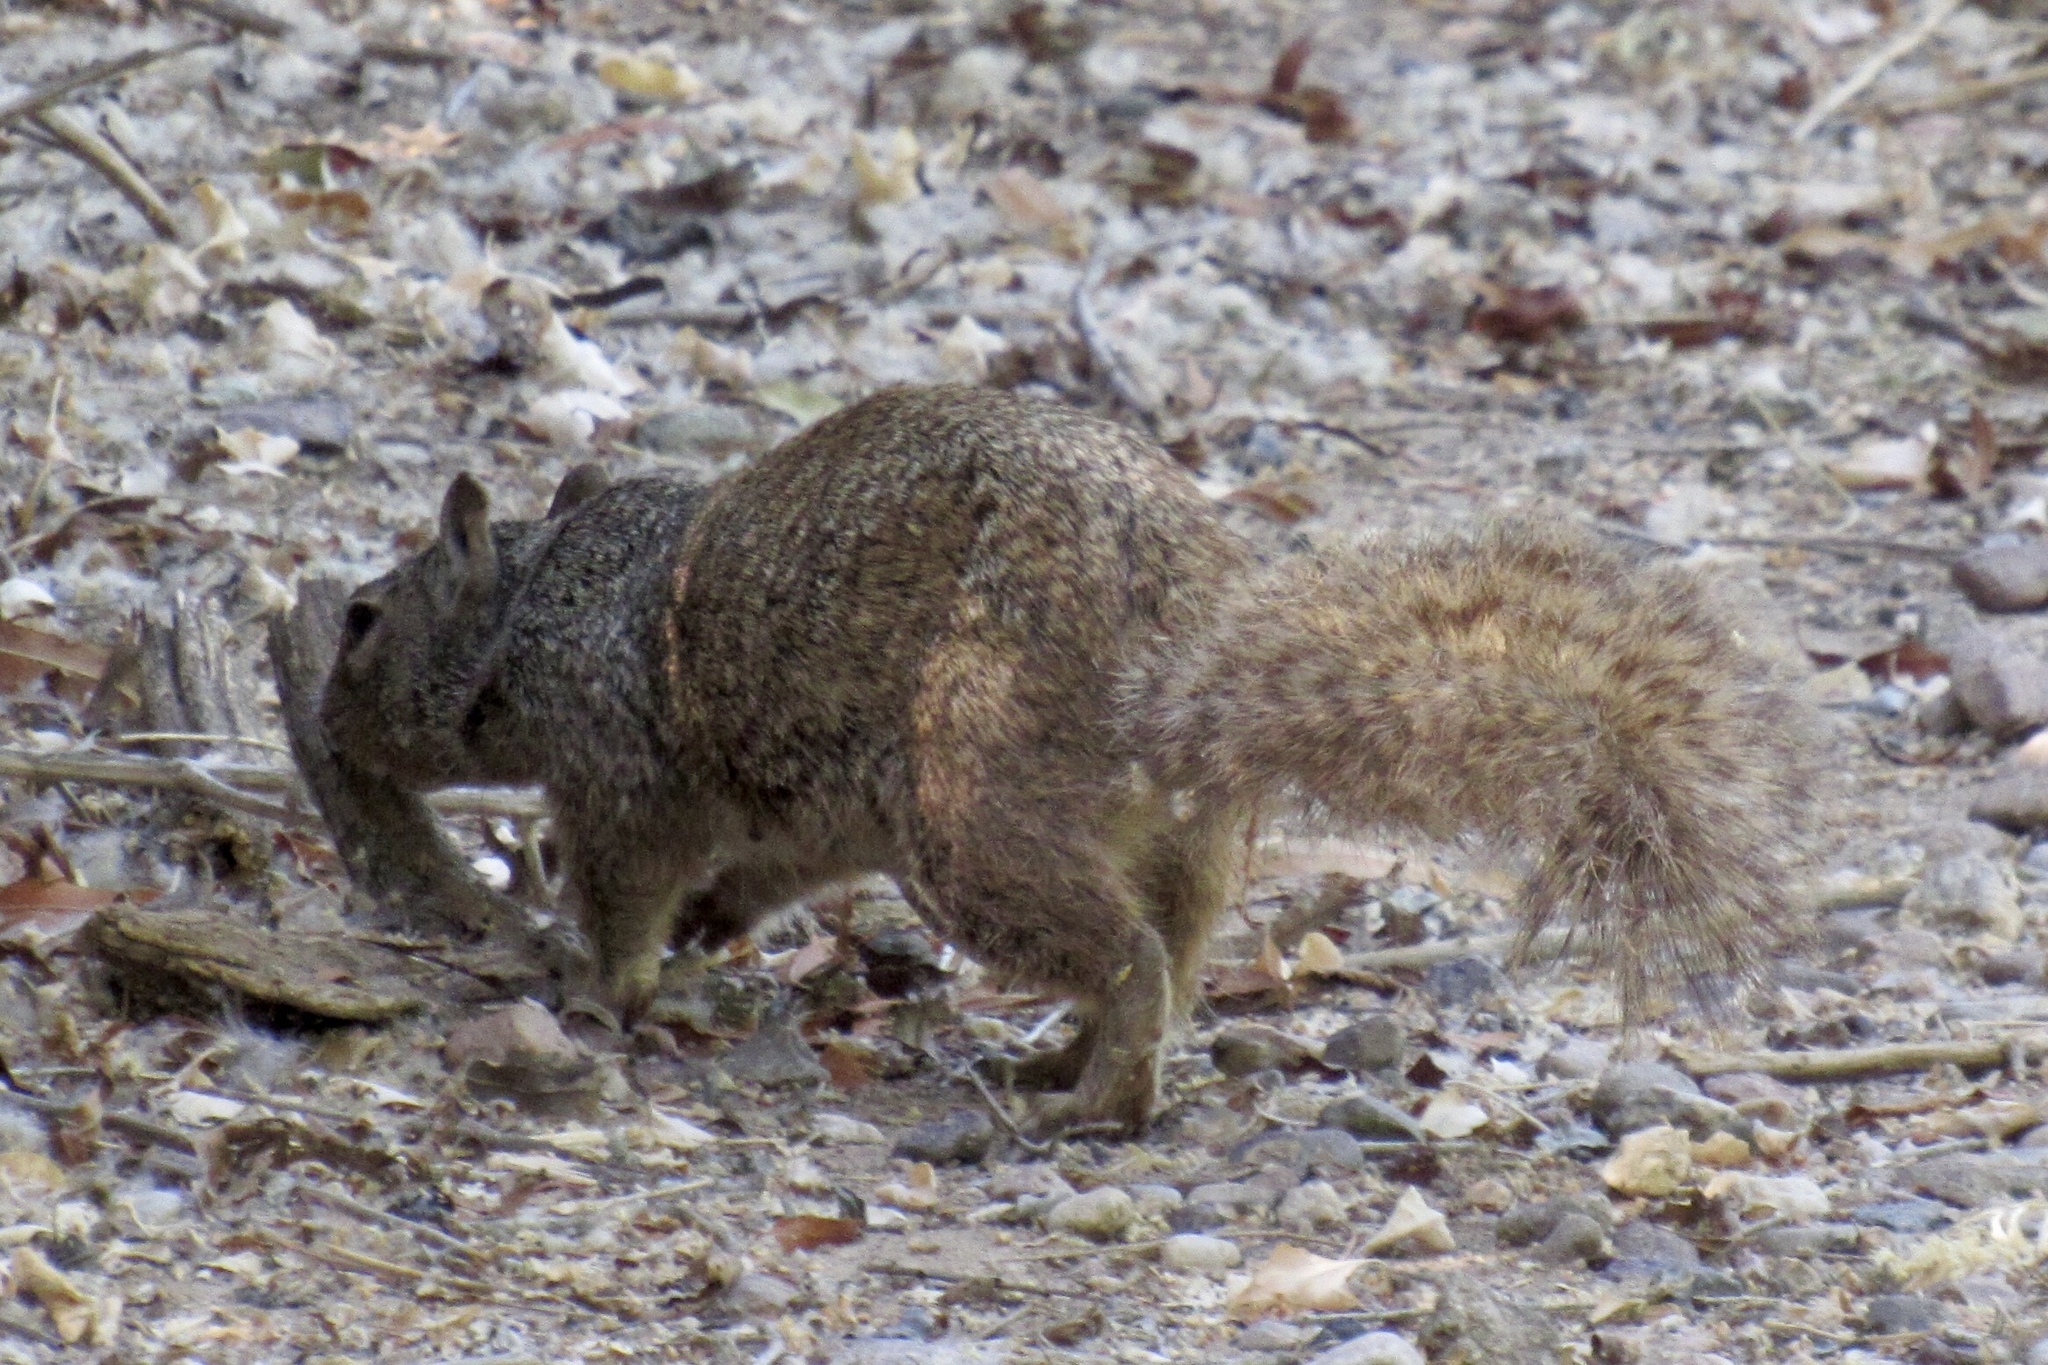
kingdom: Animalia
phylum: Chordata
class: Mammalia
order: Rodentia
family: Sciuridae
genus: Otospermophilus
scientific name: Otospermophilus variegatus
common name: Rock squirrel
